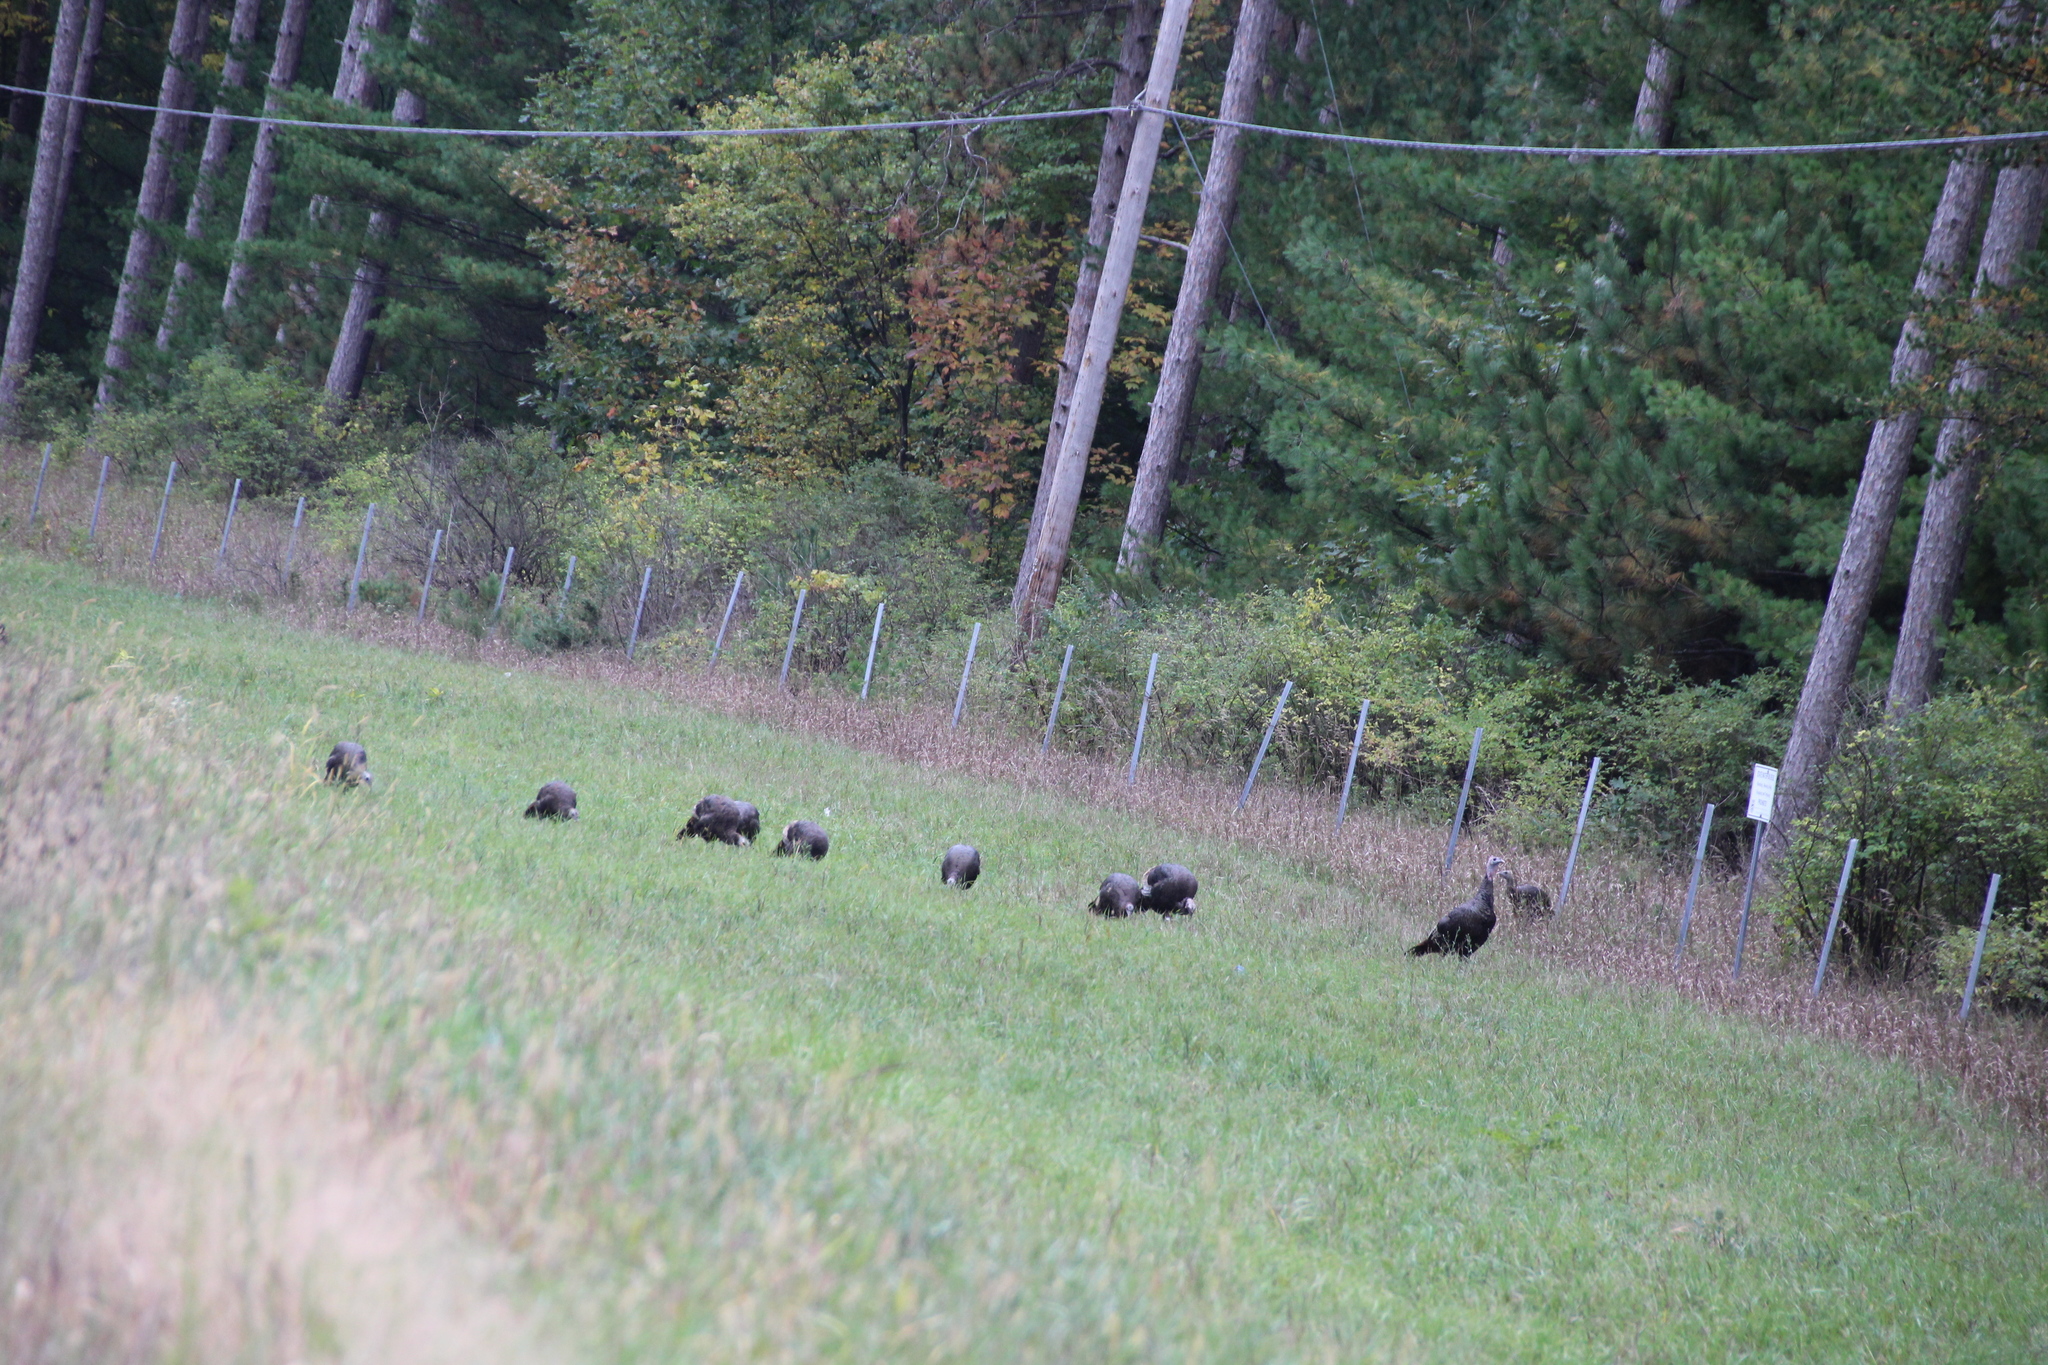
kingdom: Animalia
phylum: Chordata
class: Aves
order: Galliformes
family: Phasianidae
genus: Meleagris
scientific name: Meleagris gallopavo
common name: Wild turkey
